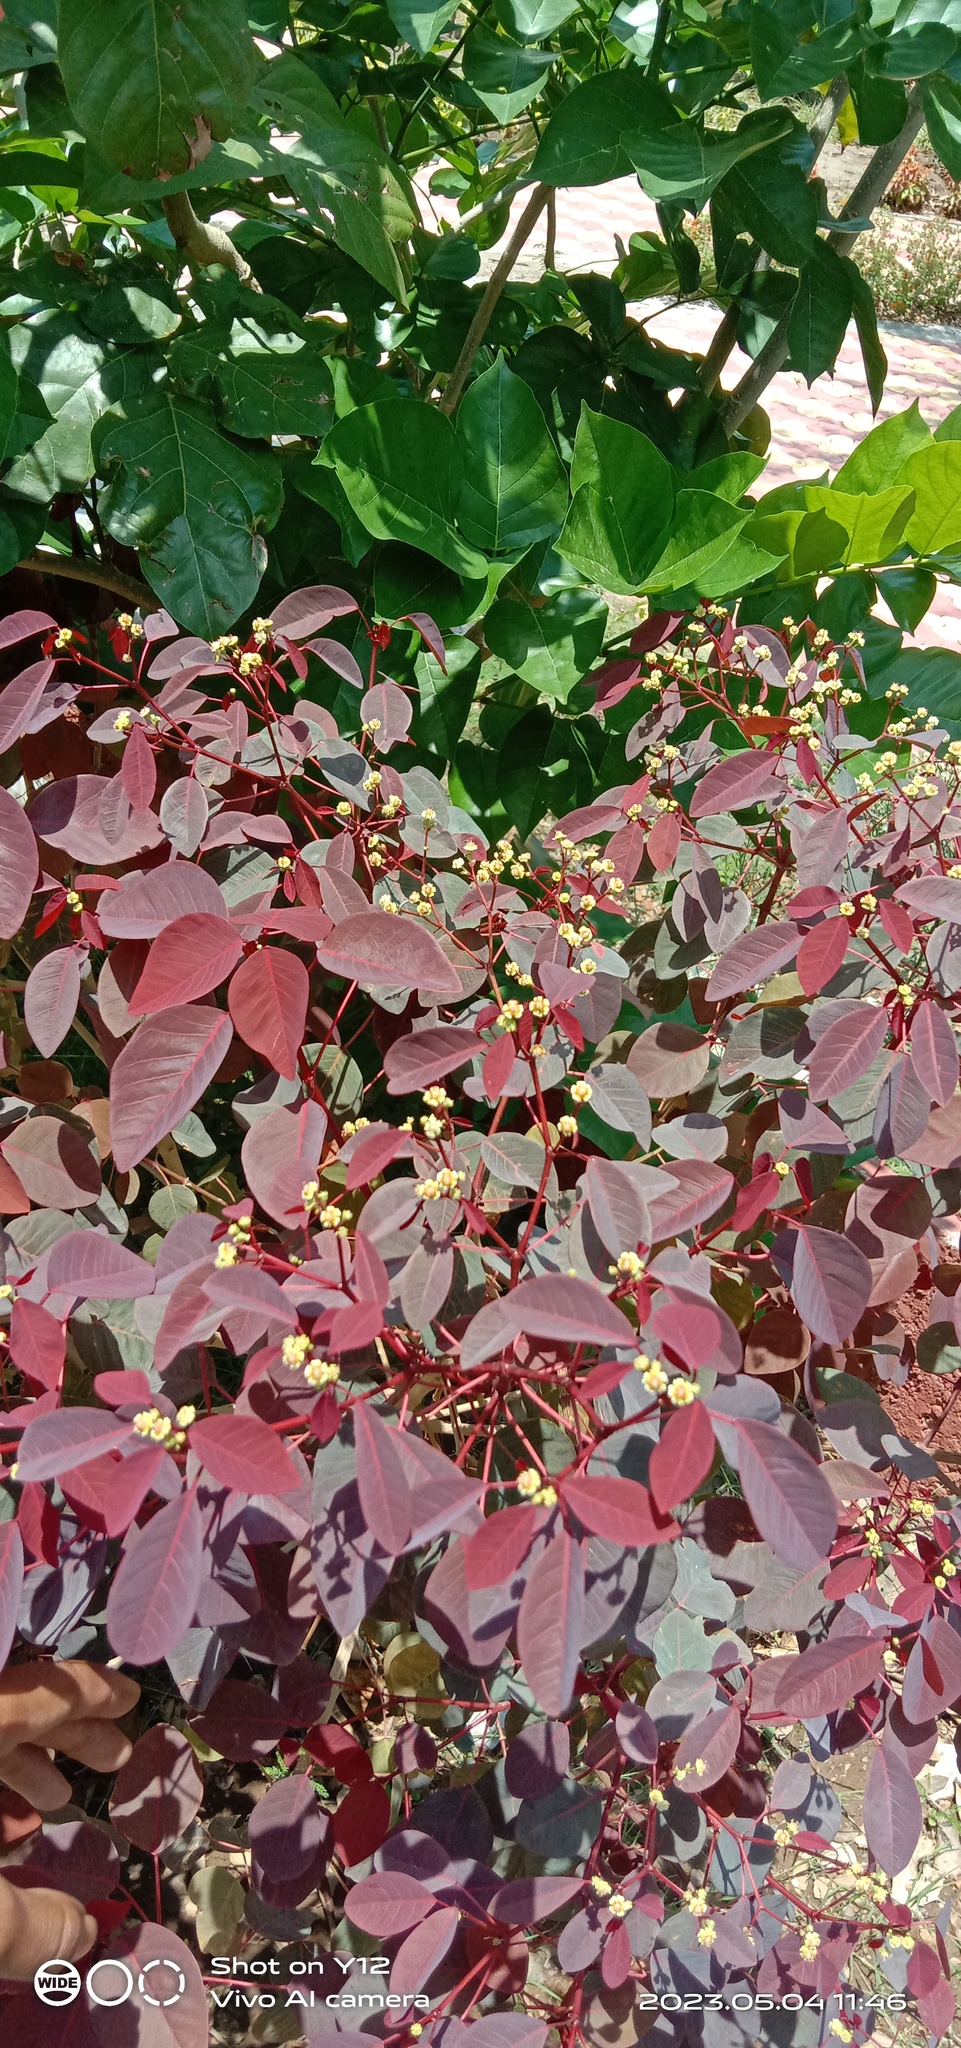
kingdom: Plantae
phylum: Tracheophyta
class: Magnoliopsida
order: Malpighiales
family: Euphorbiaceae
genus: Euphorbia
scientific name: Euphorbia cotinifolia
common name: Tropical smokebush
